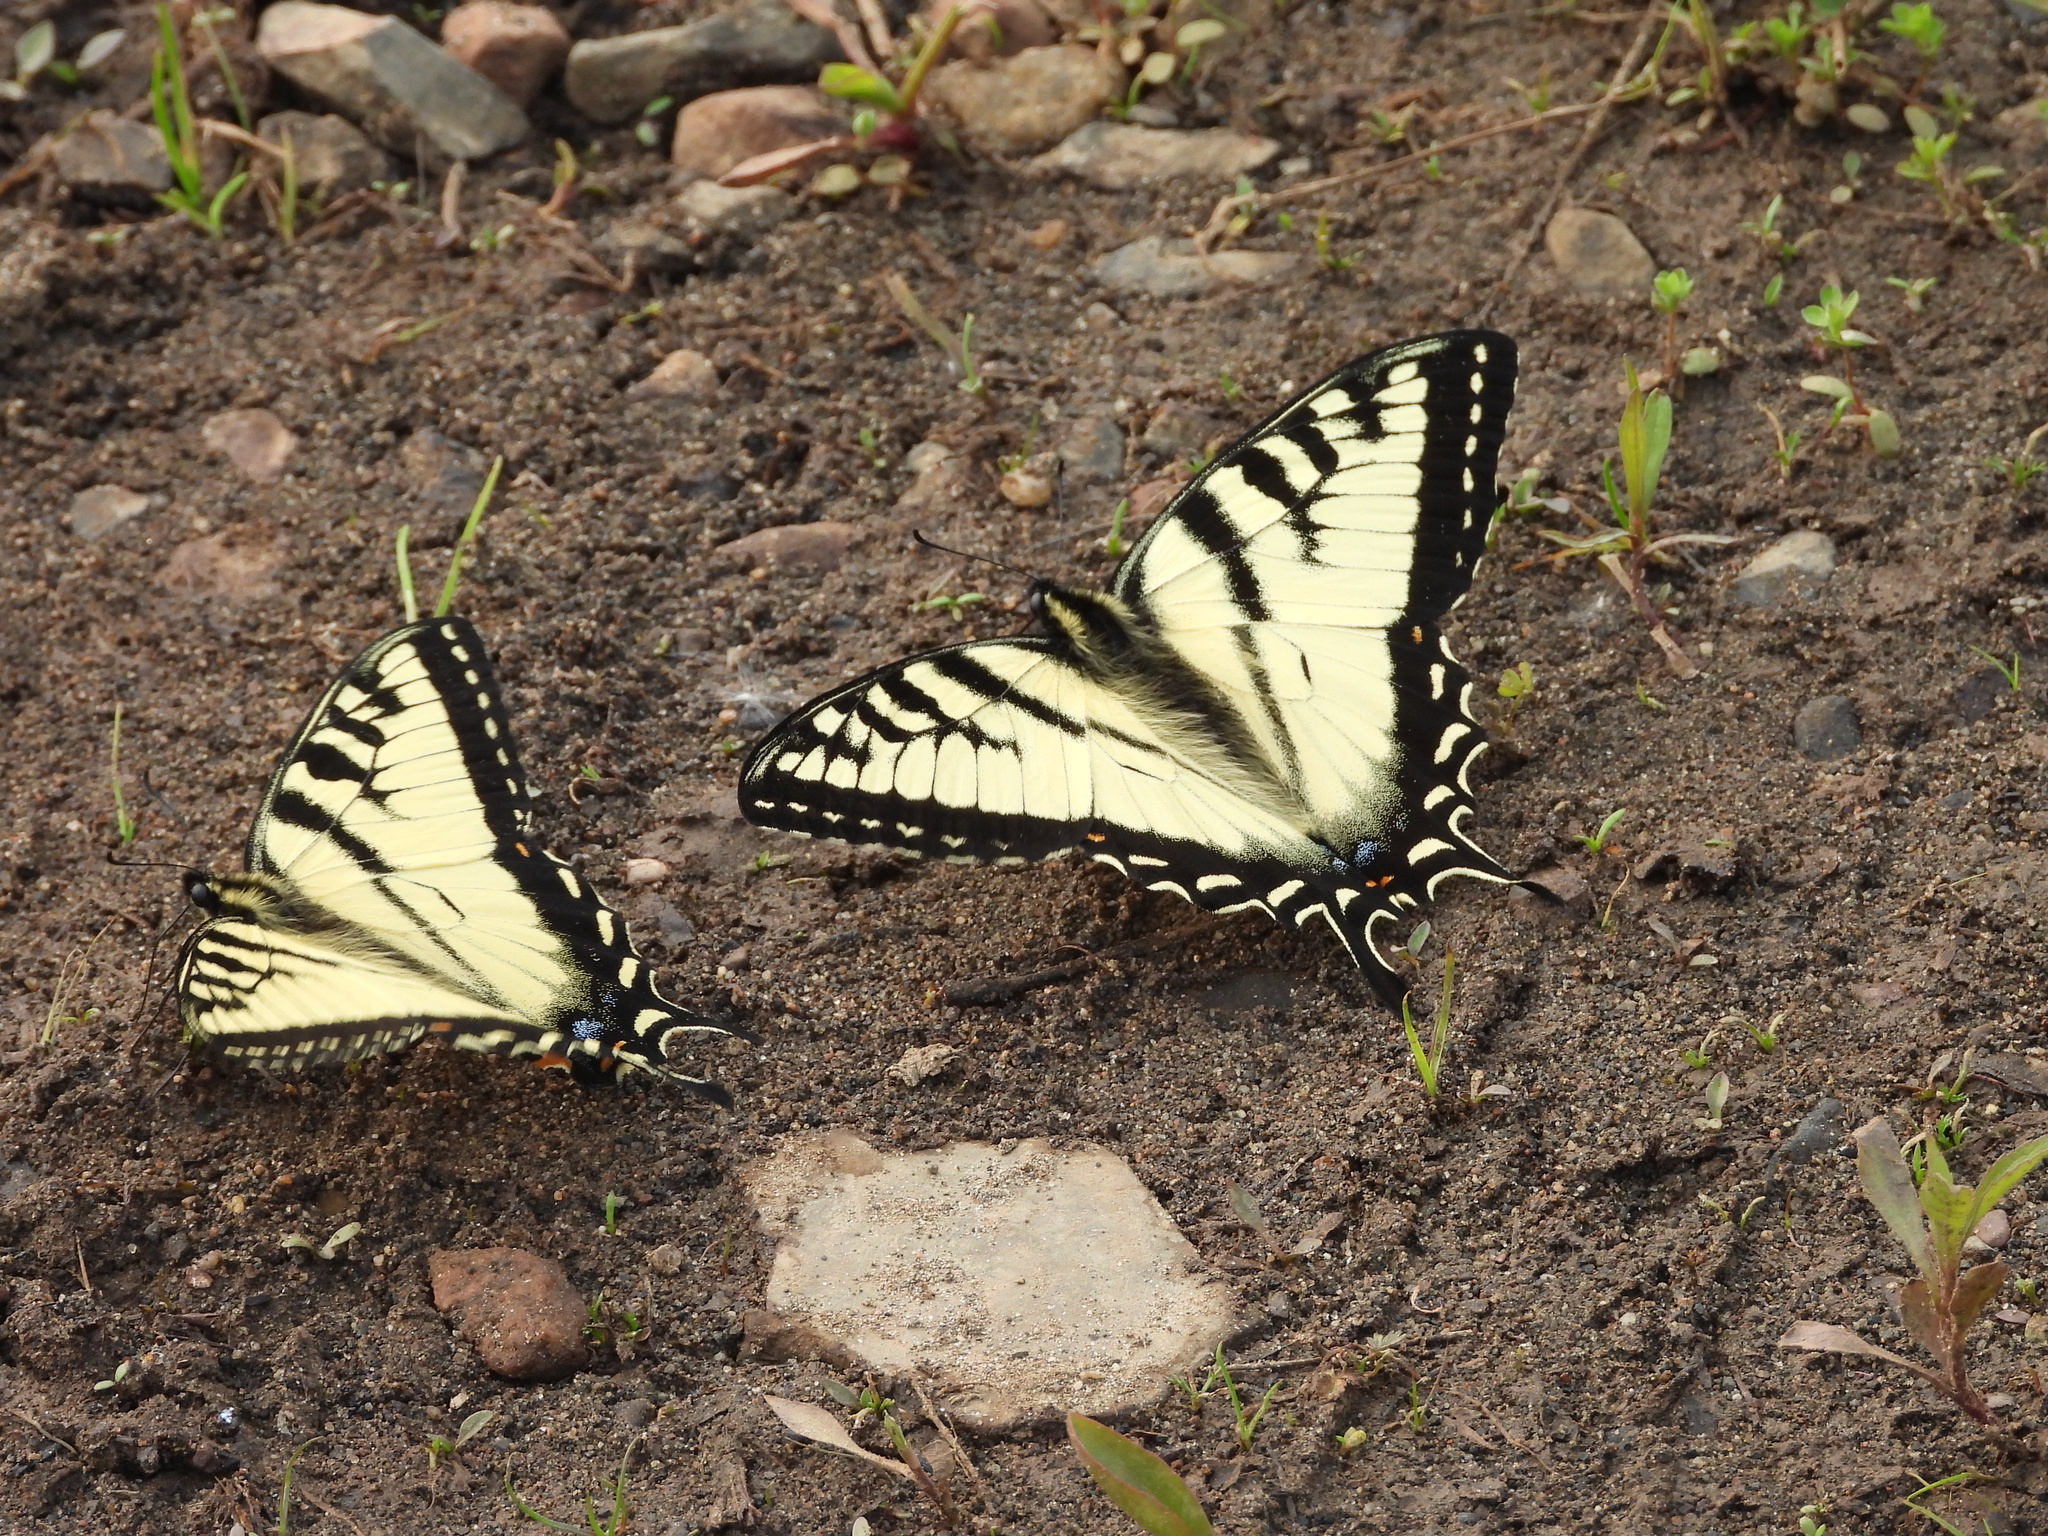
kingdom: Animalia
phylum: Arthropoda
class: Insecta
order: Lepidoptera
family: Papilionidae
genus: Papilio
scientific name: Papilio canadensis
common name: Canadian tiger swallowtail
